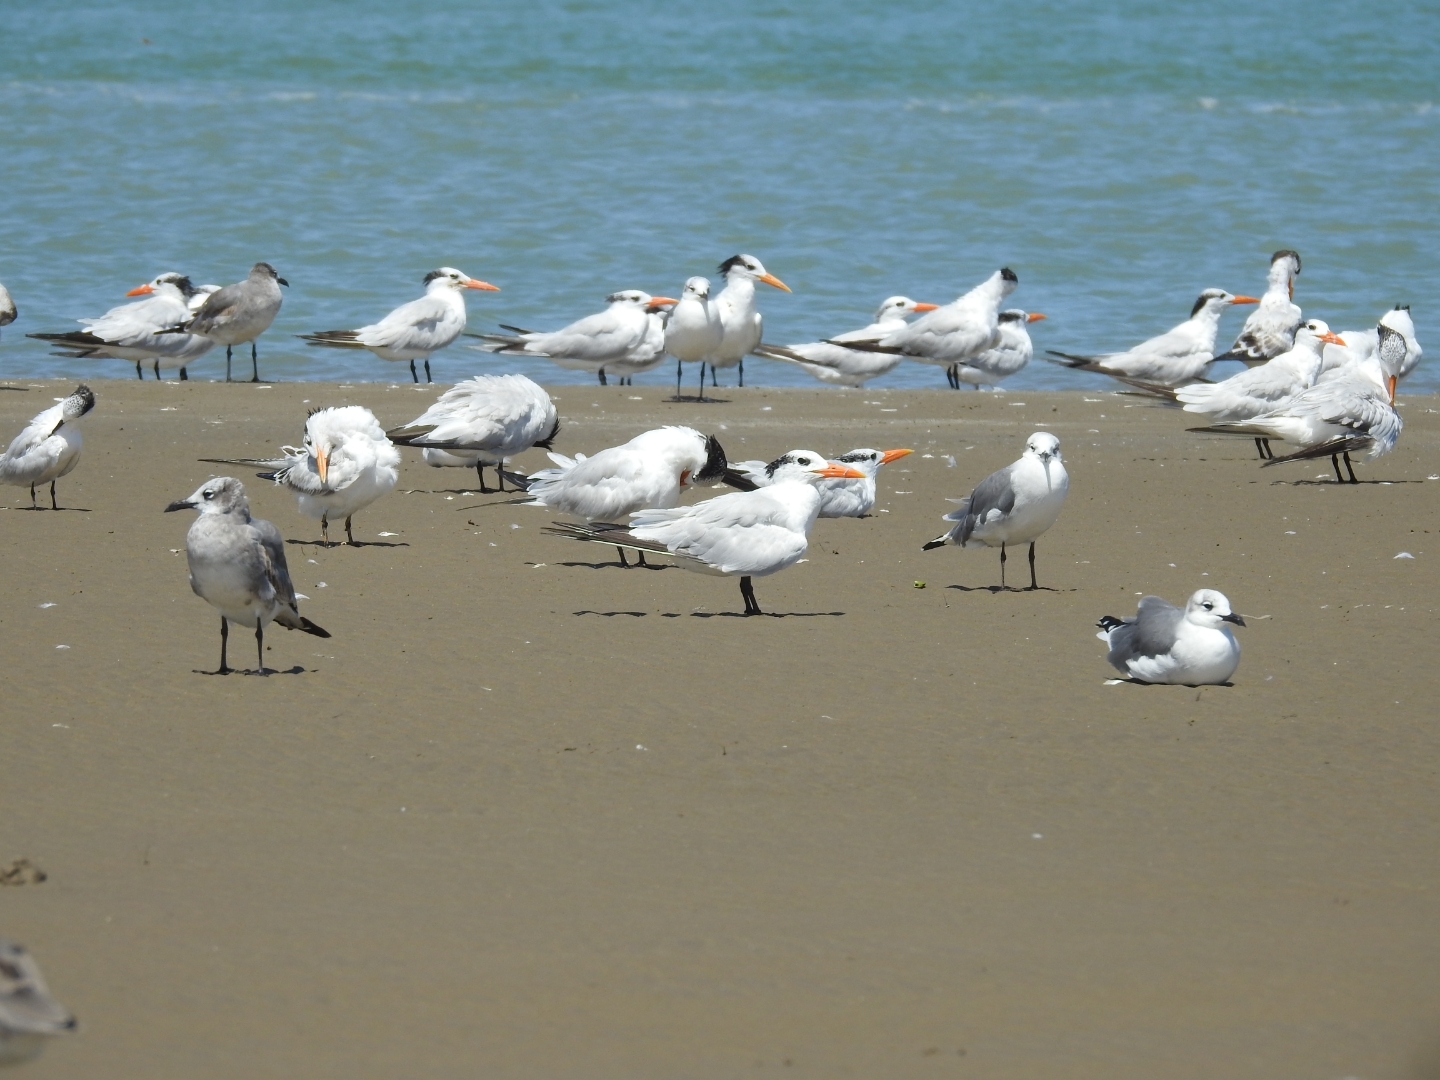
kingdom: Animalia
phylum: Chordata
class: Aves
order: Charadriiformes
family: Laridae
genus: Thalasseus
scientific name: Thalasseus maximus
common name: Royal tern
